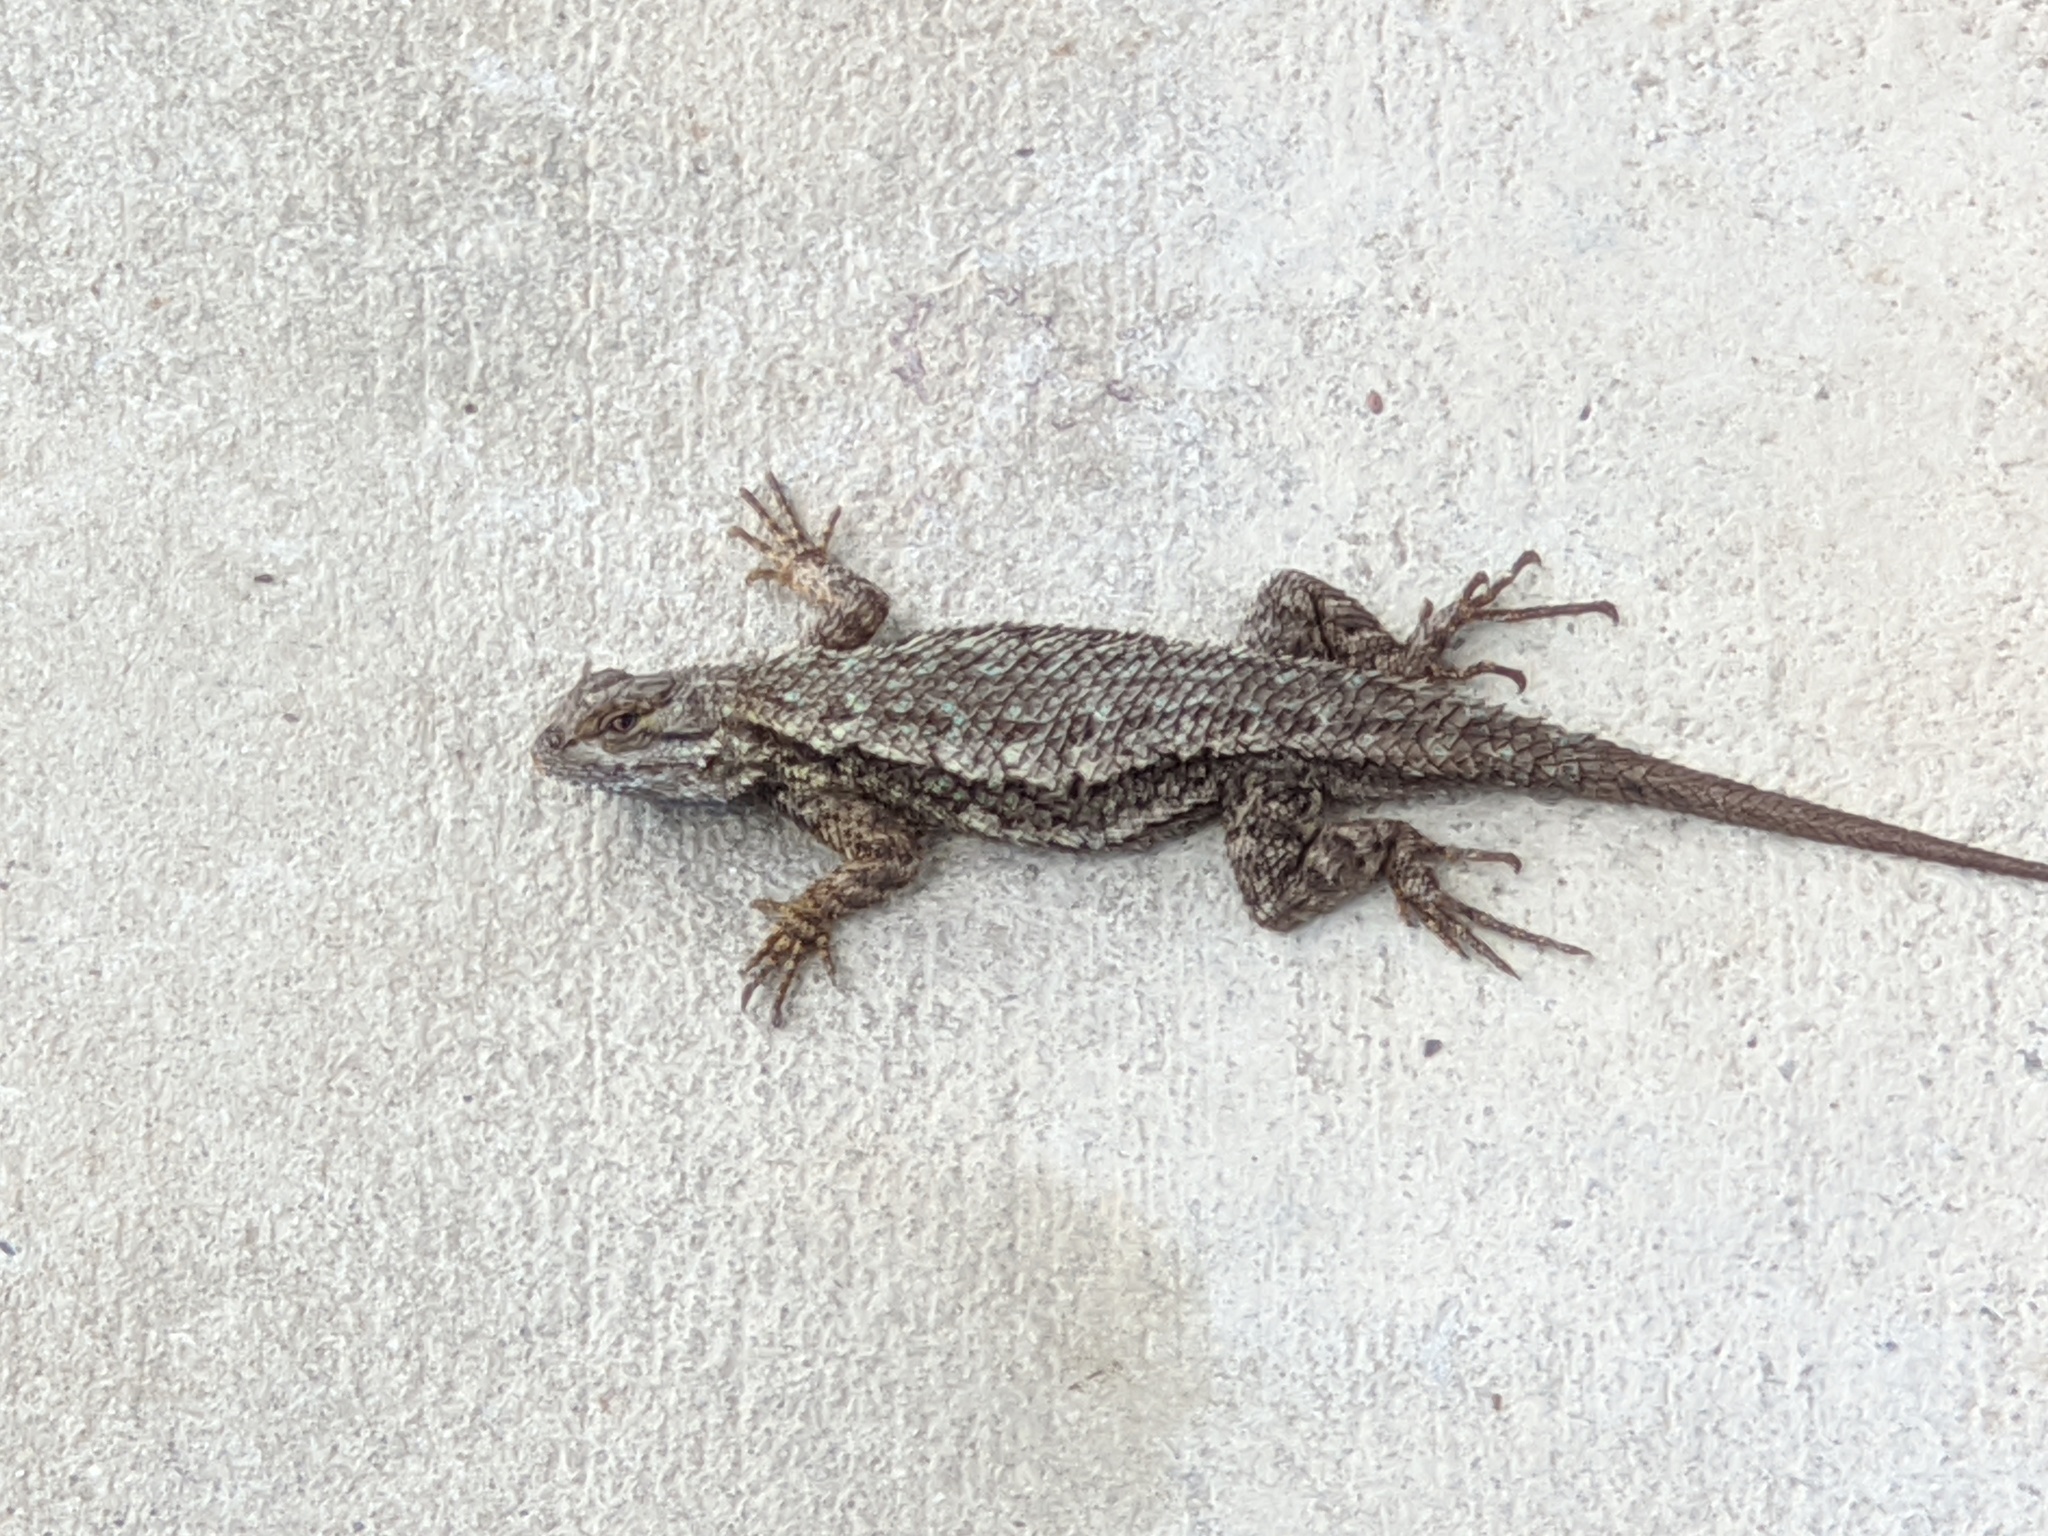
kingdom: Animalia
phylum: Chordata
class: Squamata
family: Phrynosomatidae
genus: Sceloporus
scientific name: Sceloporus occidentalis
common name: Western fence lizard
